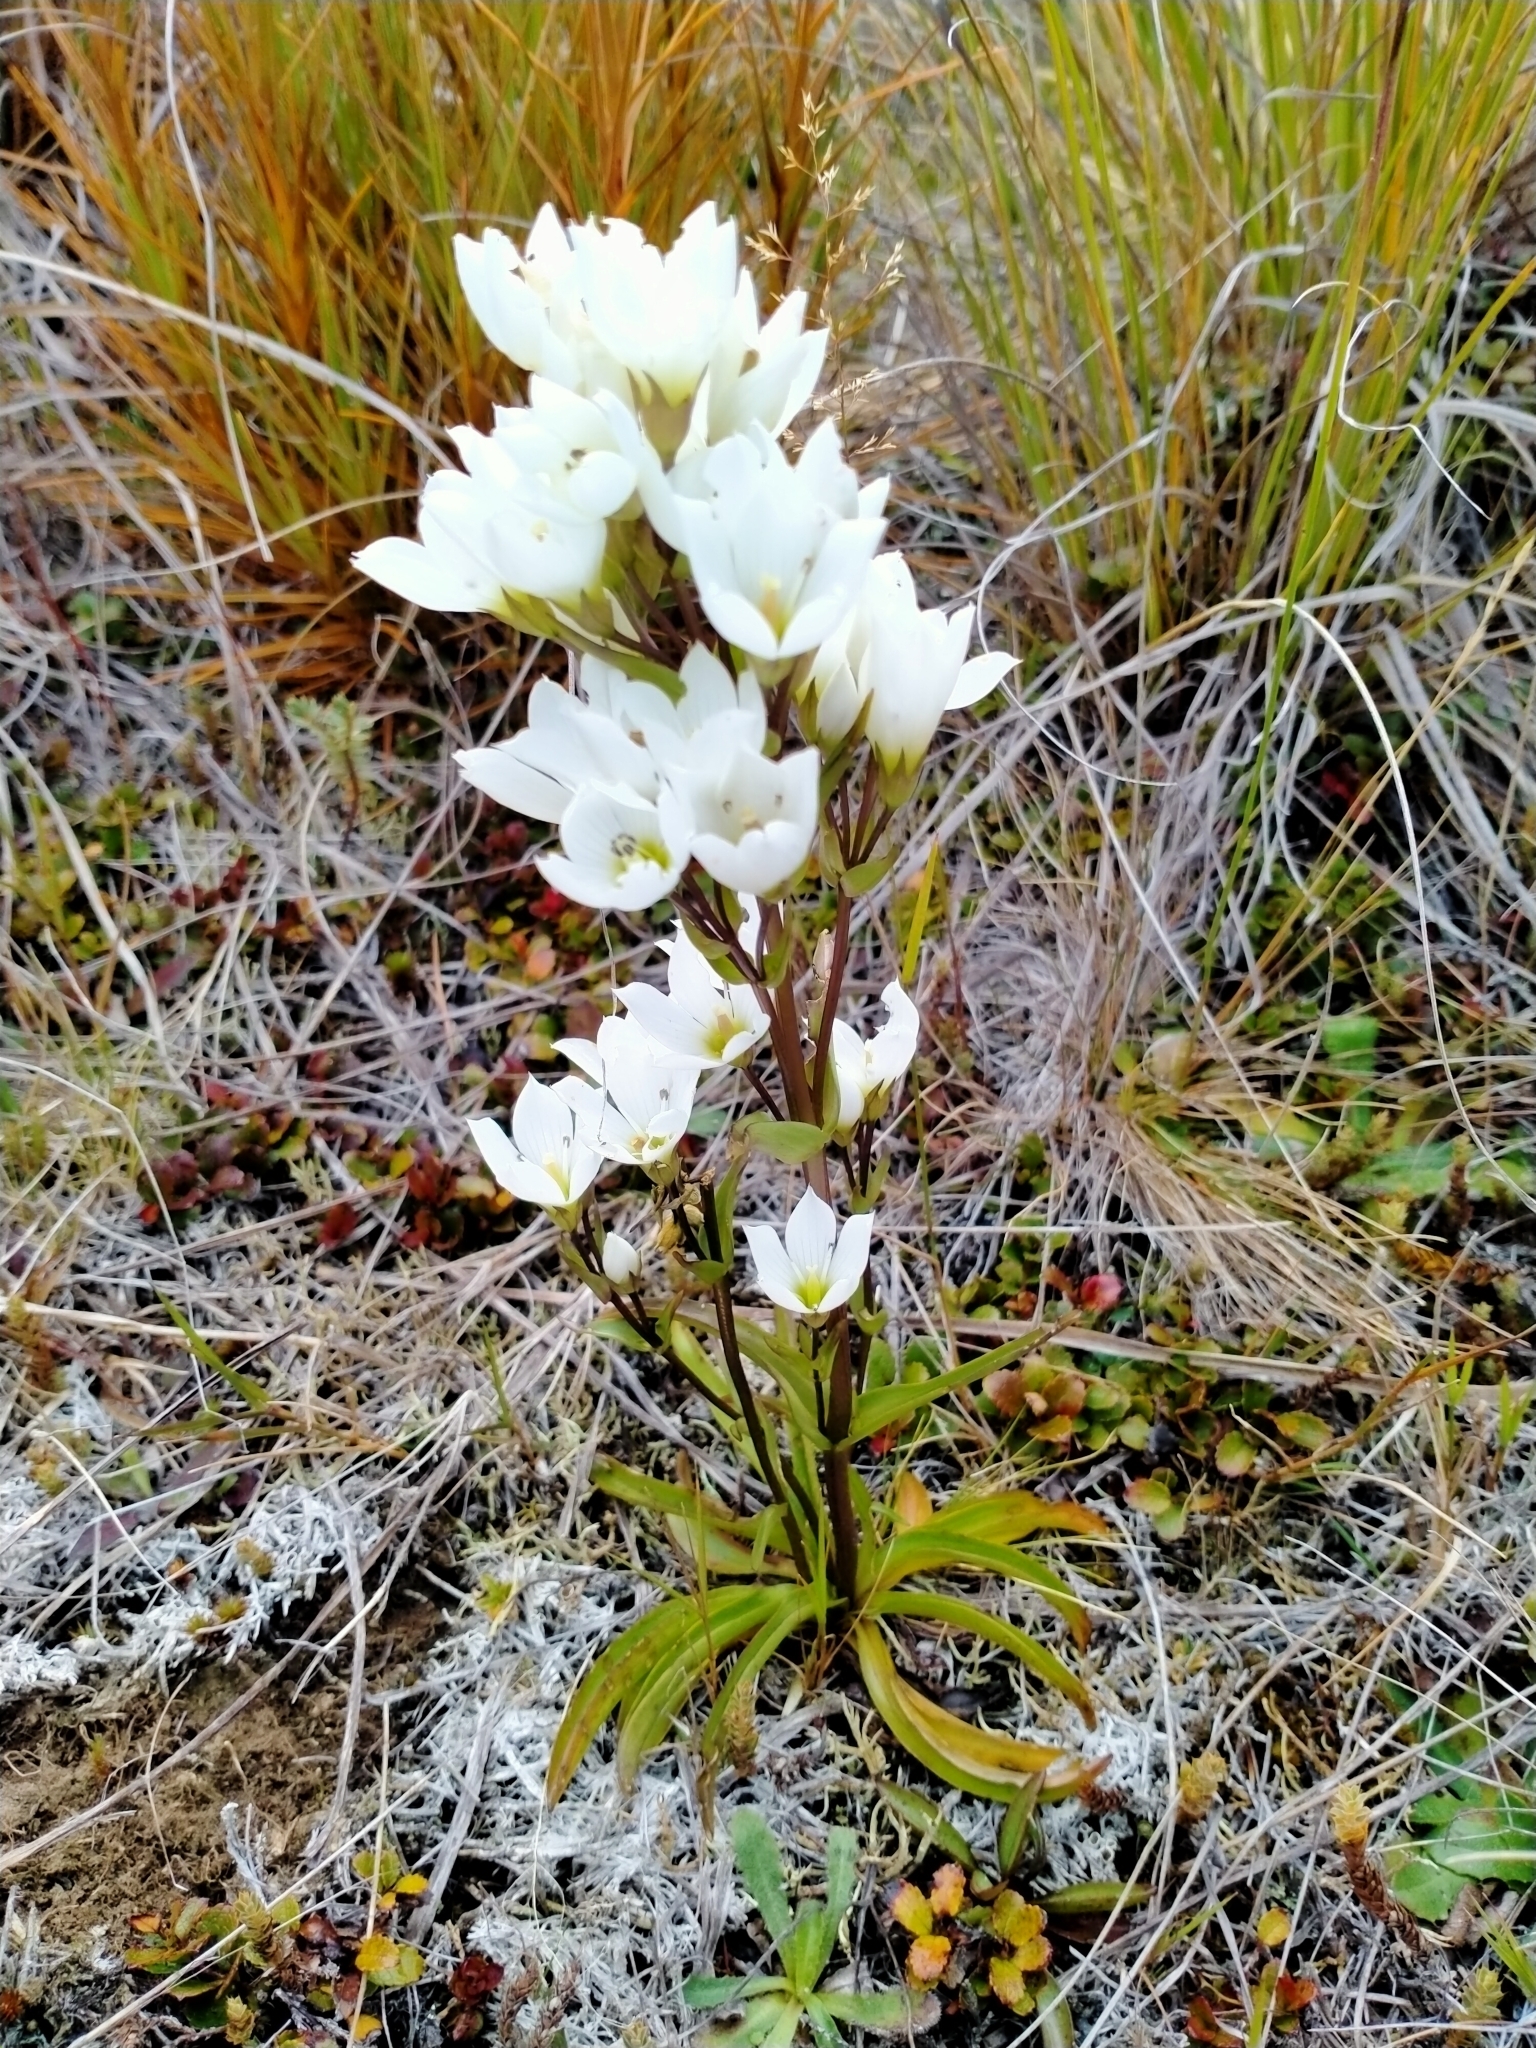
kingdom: Plantae
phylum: Tracheophyta
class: Magnoliopsida
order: Gentianales
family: Gentianaceae
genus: Gentianella
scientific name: Gentianella corymbifera
